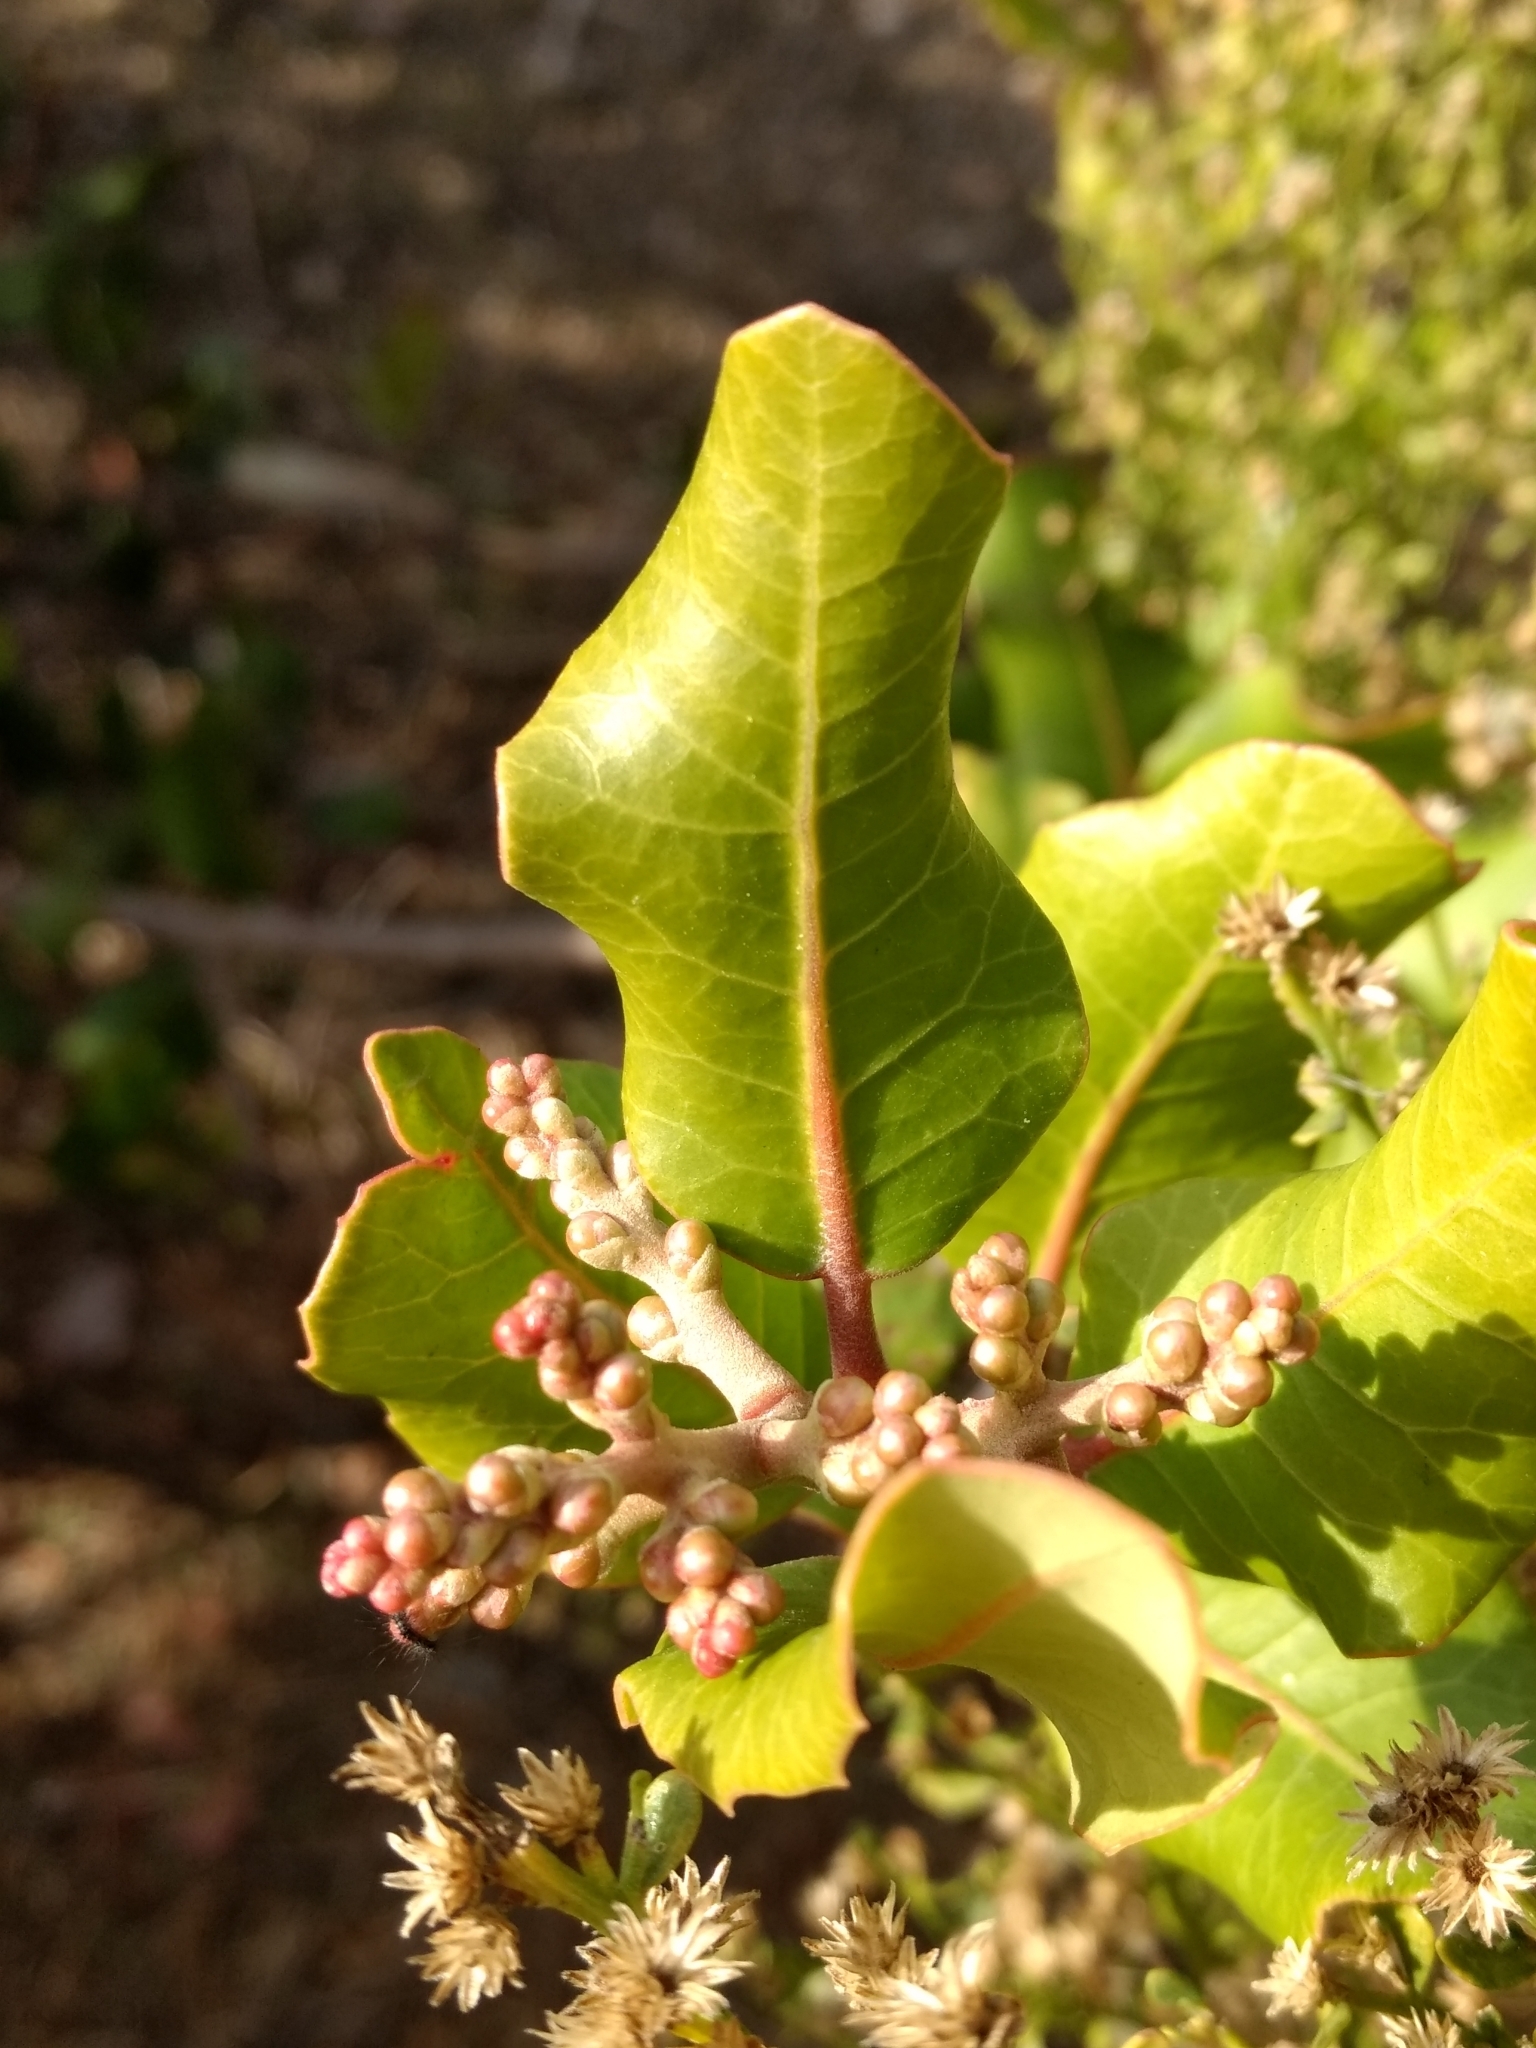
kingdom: Plantae
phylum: Tracheophyta
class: Magnoliopsida
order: Sapindales
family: Anacardiaceae
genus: Rhus
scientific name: Rhus integrifolia
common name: Lemonade sumac
